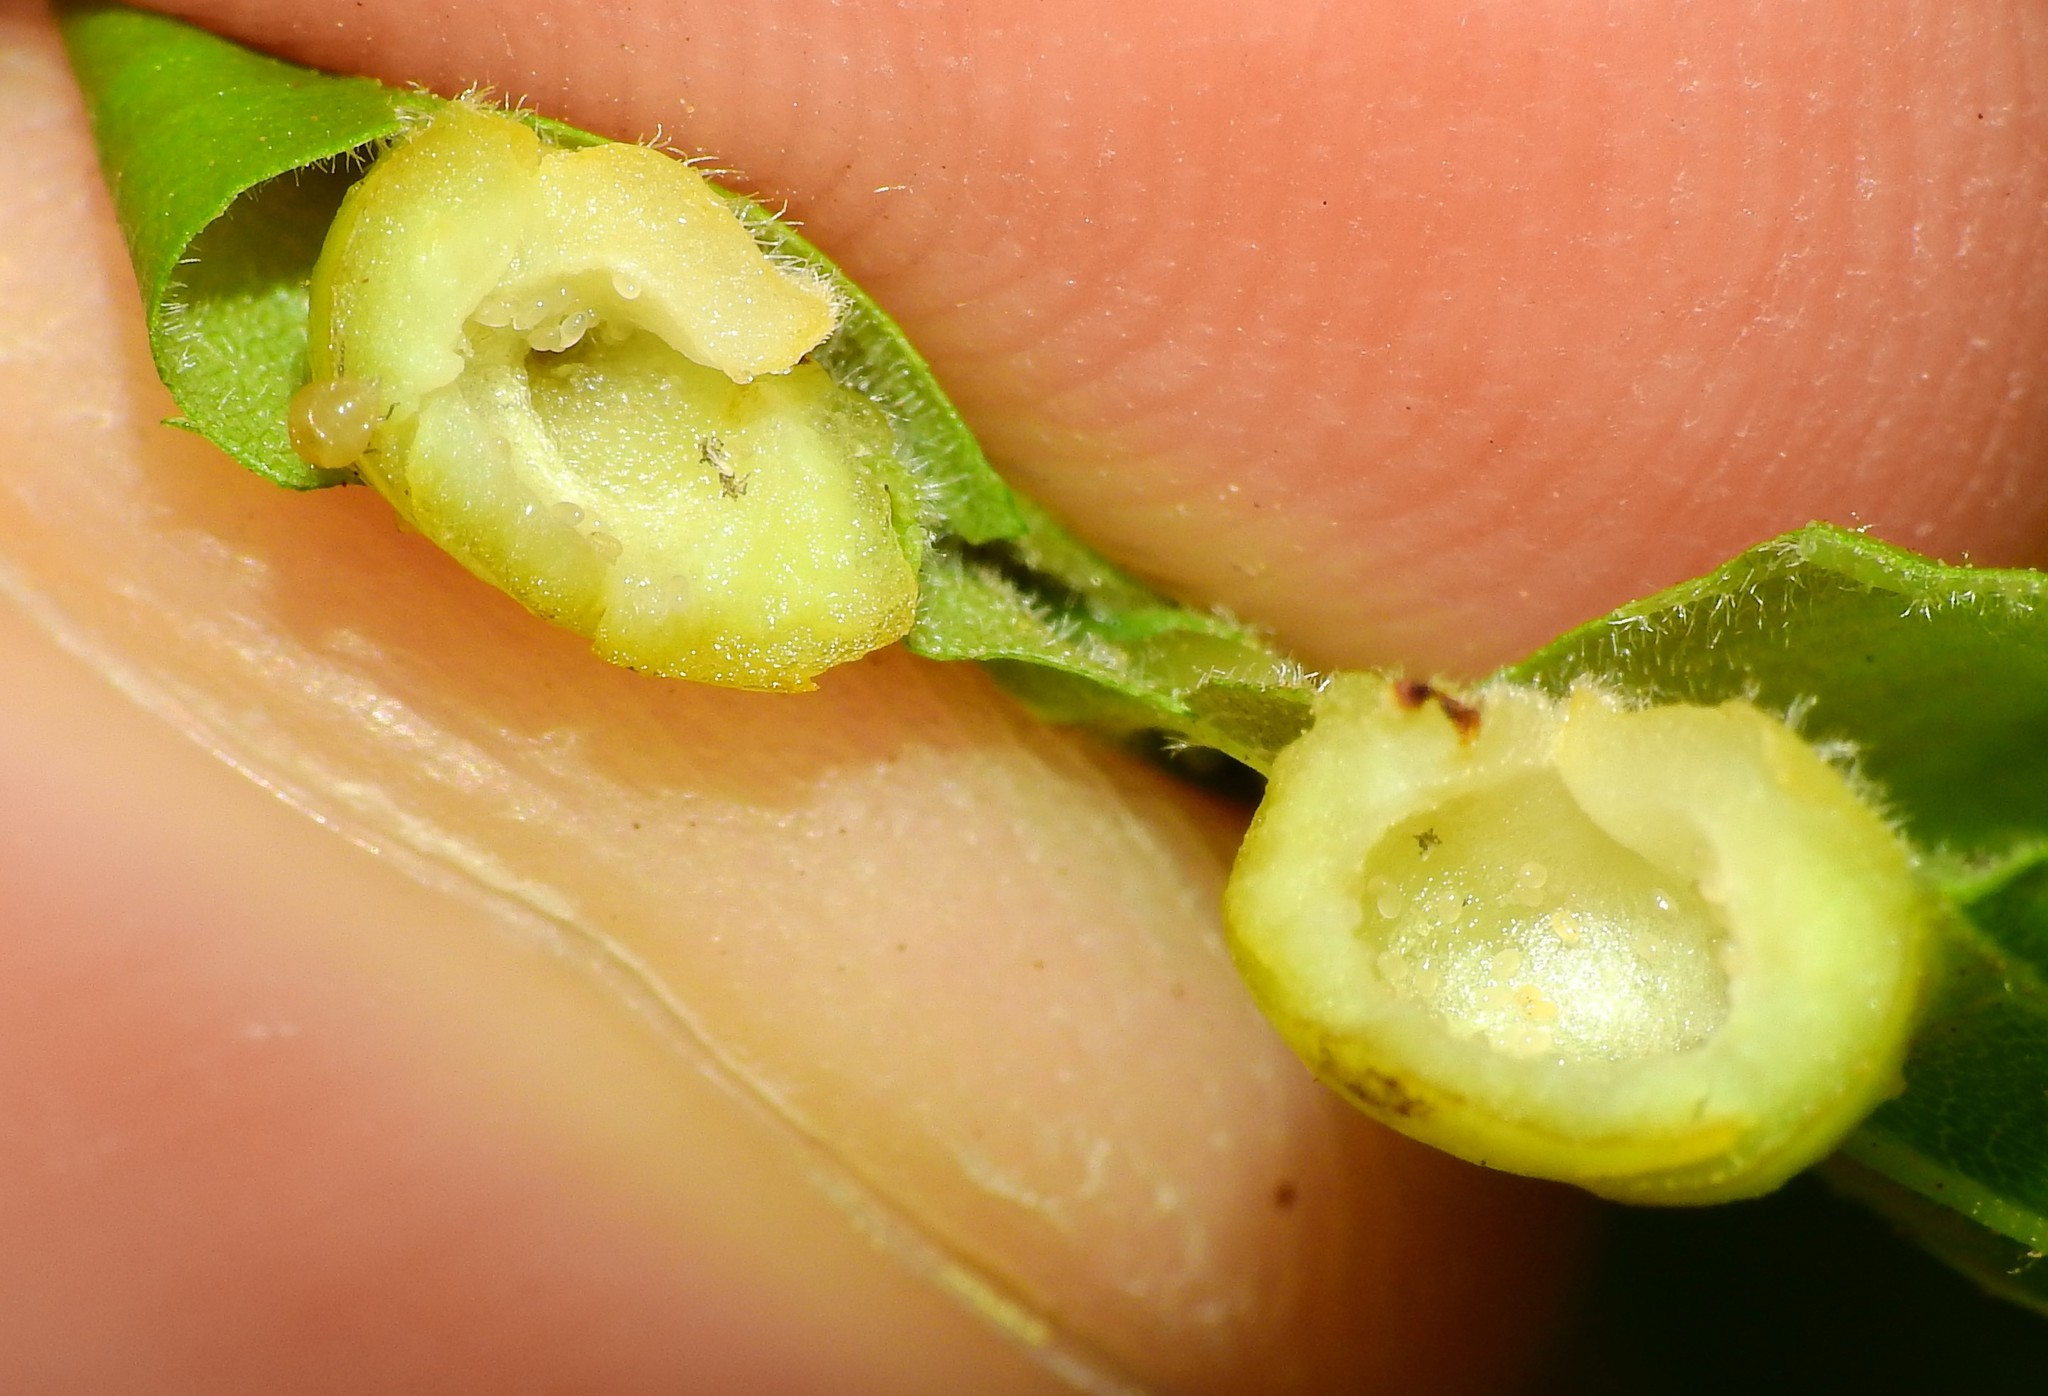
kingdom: Animalia
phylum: Arthropoda
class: Insecta
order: Hemiptera
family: Phylloxeridae
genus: Phylloxera
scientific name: Phylloxera caryae-globuli
